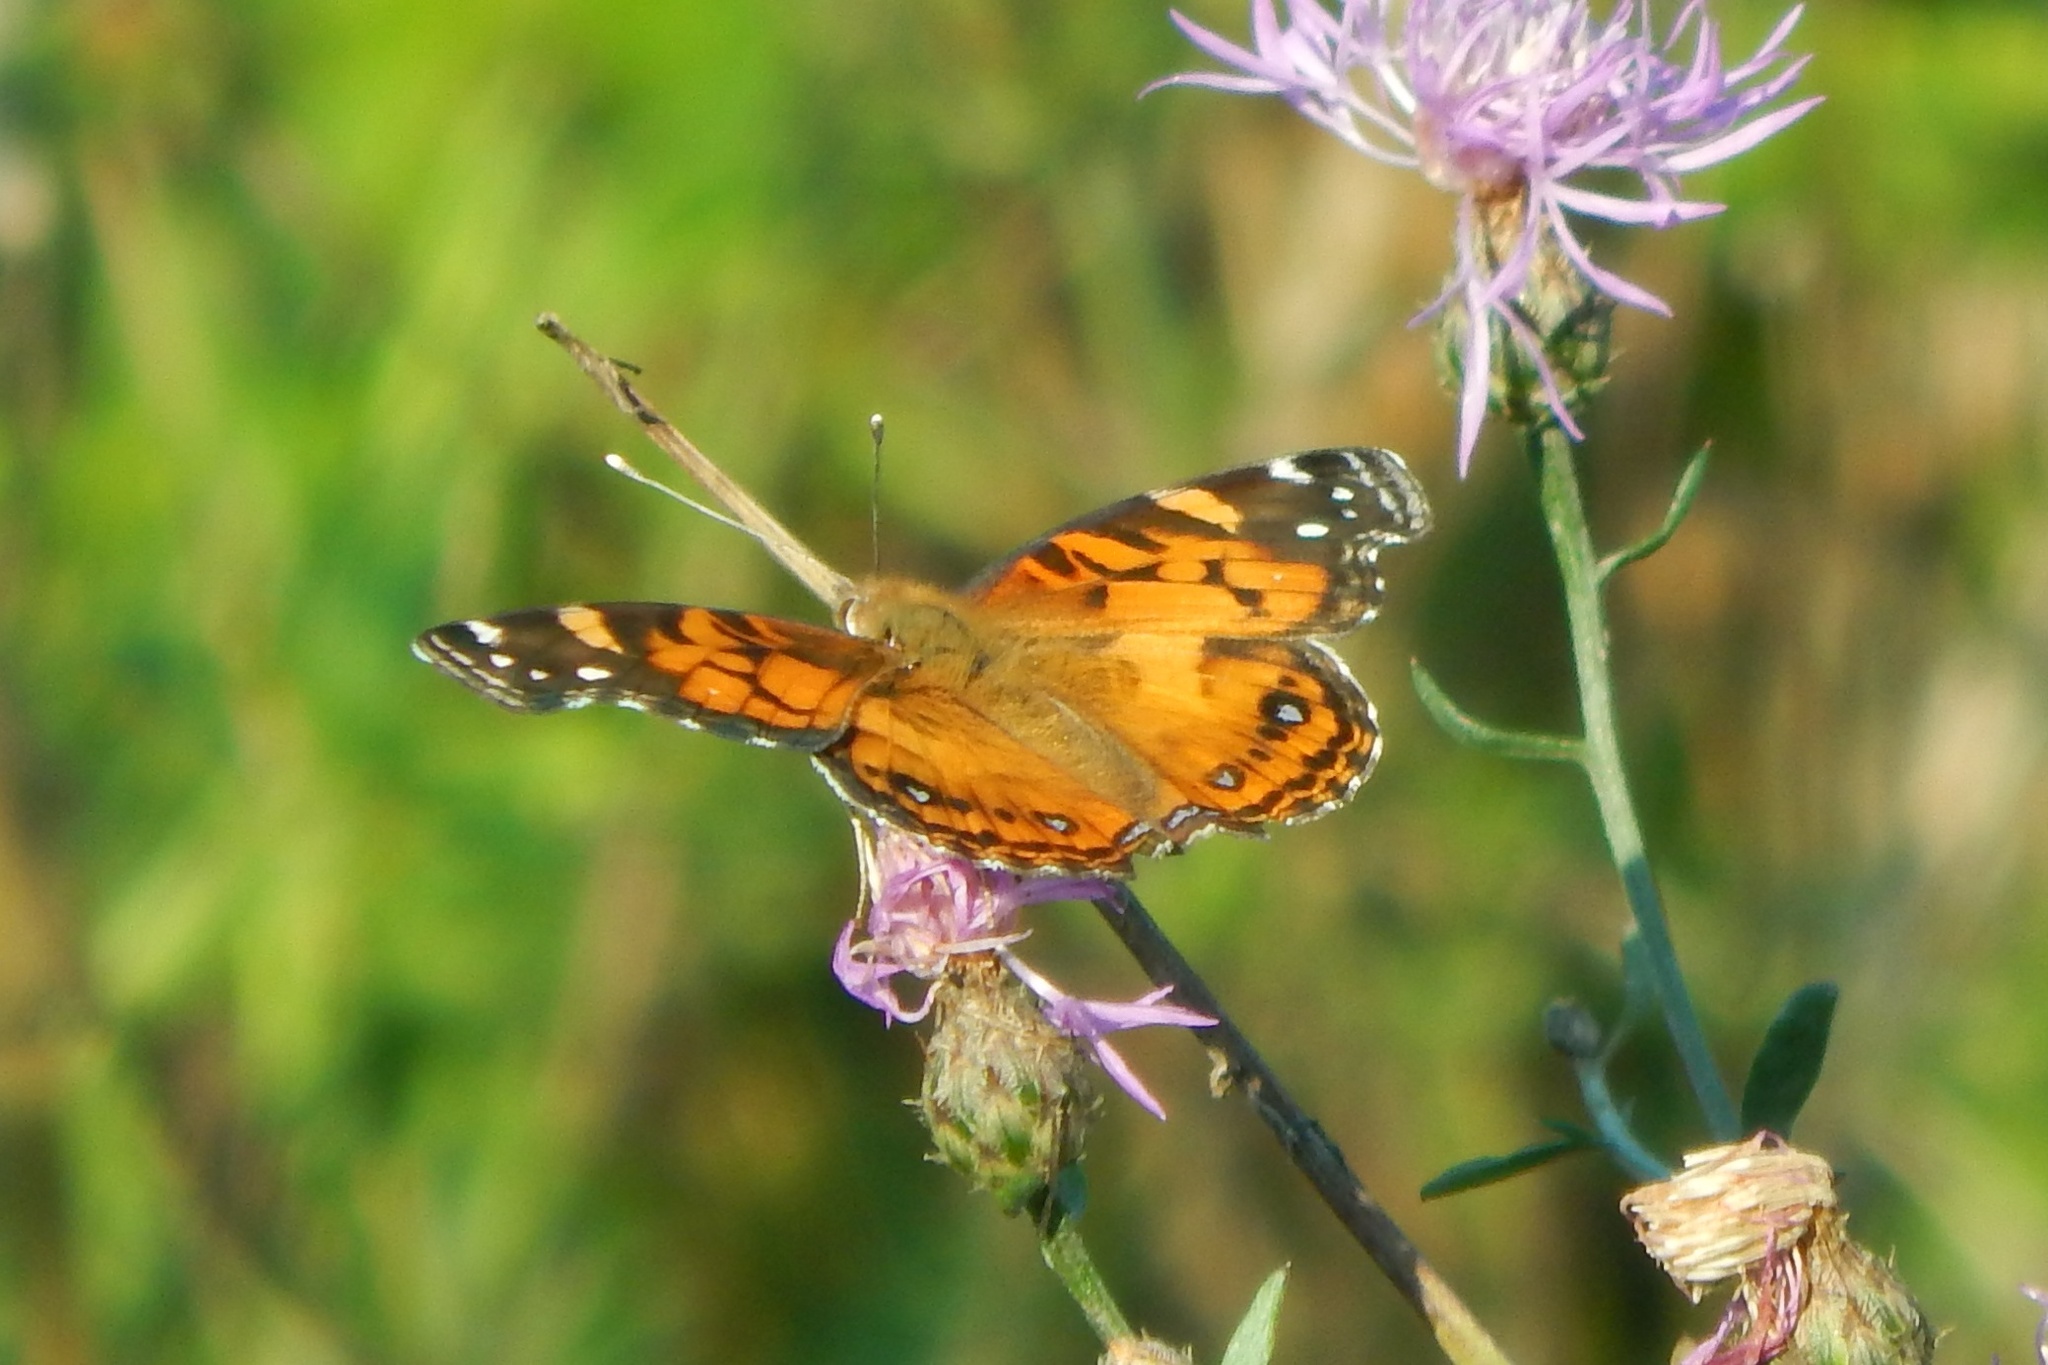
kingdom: Animalia
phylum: Arthropoda
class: Insecta
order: Lepidoptera
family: Nymphalidae
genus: Vanessa
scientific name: Vanessa virginiensis
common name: American lady
